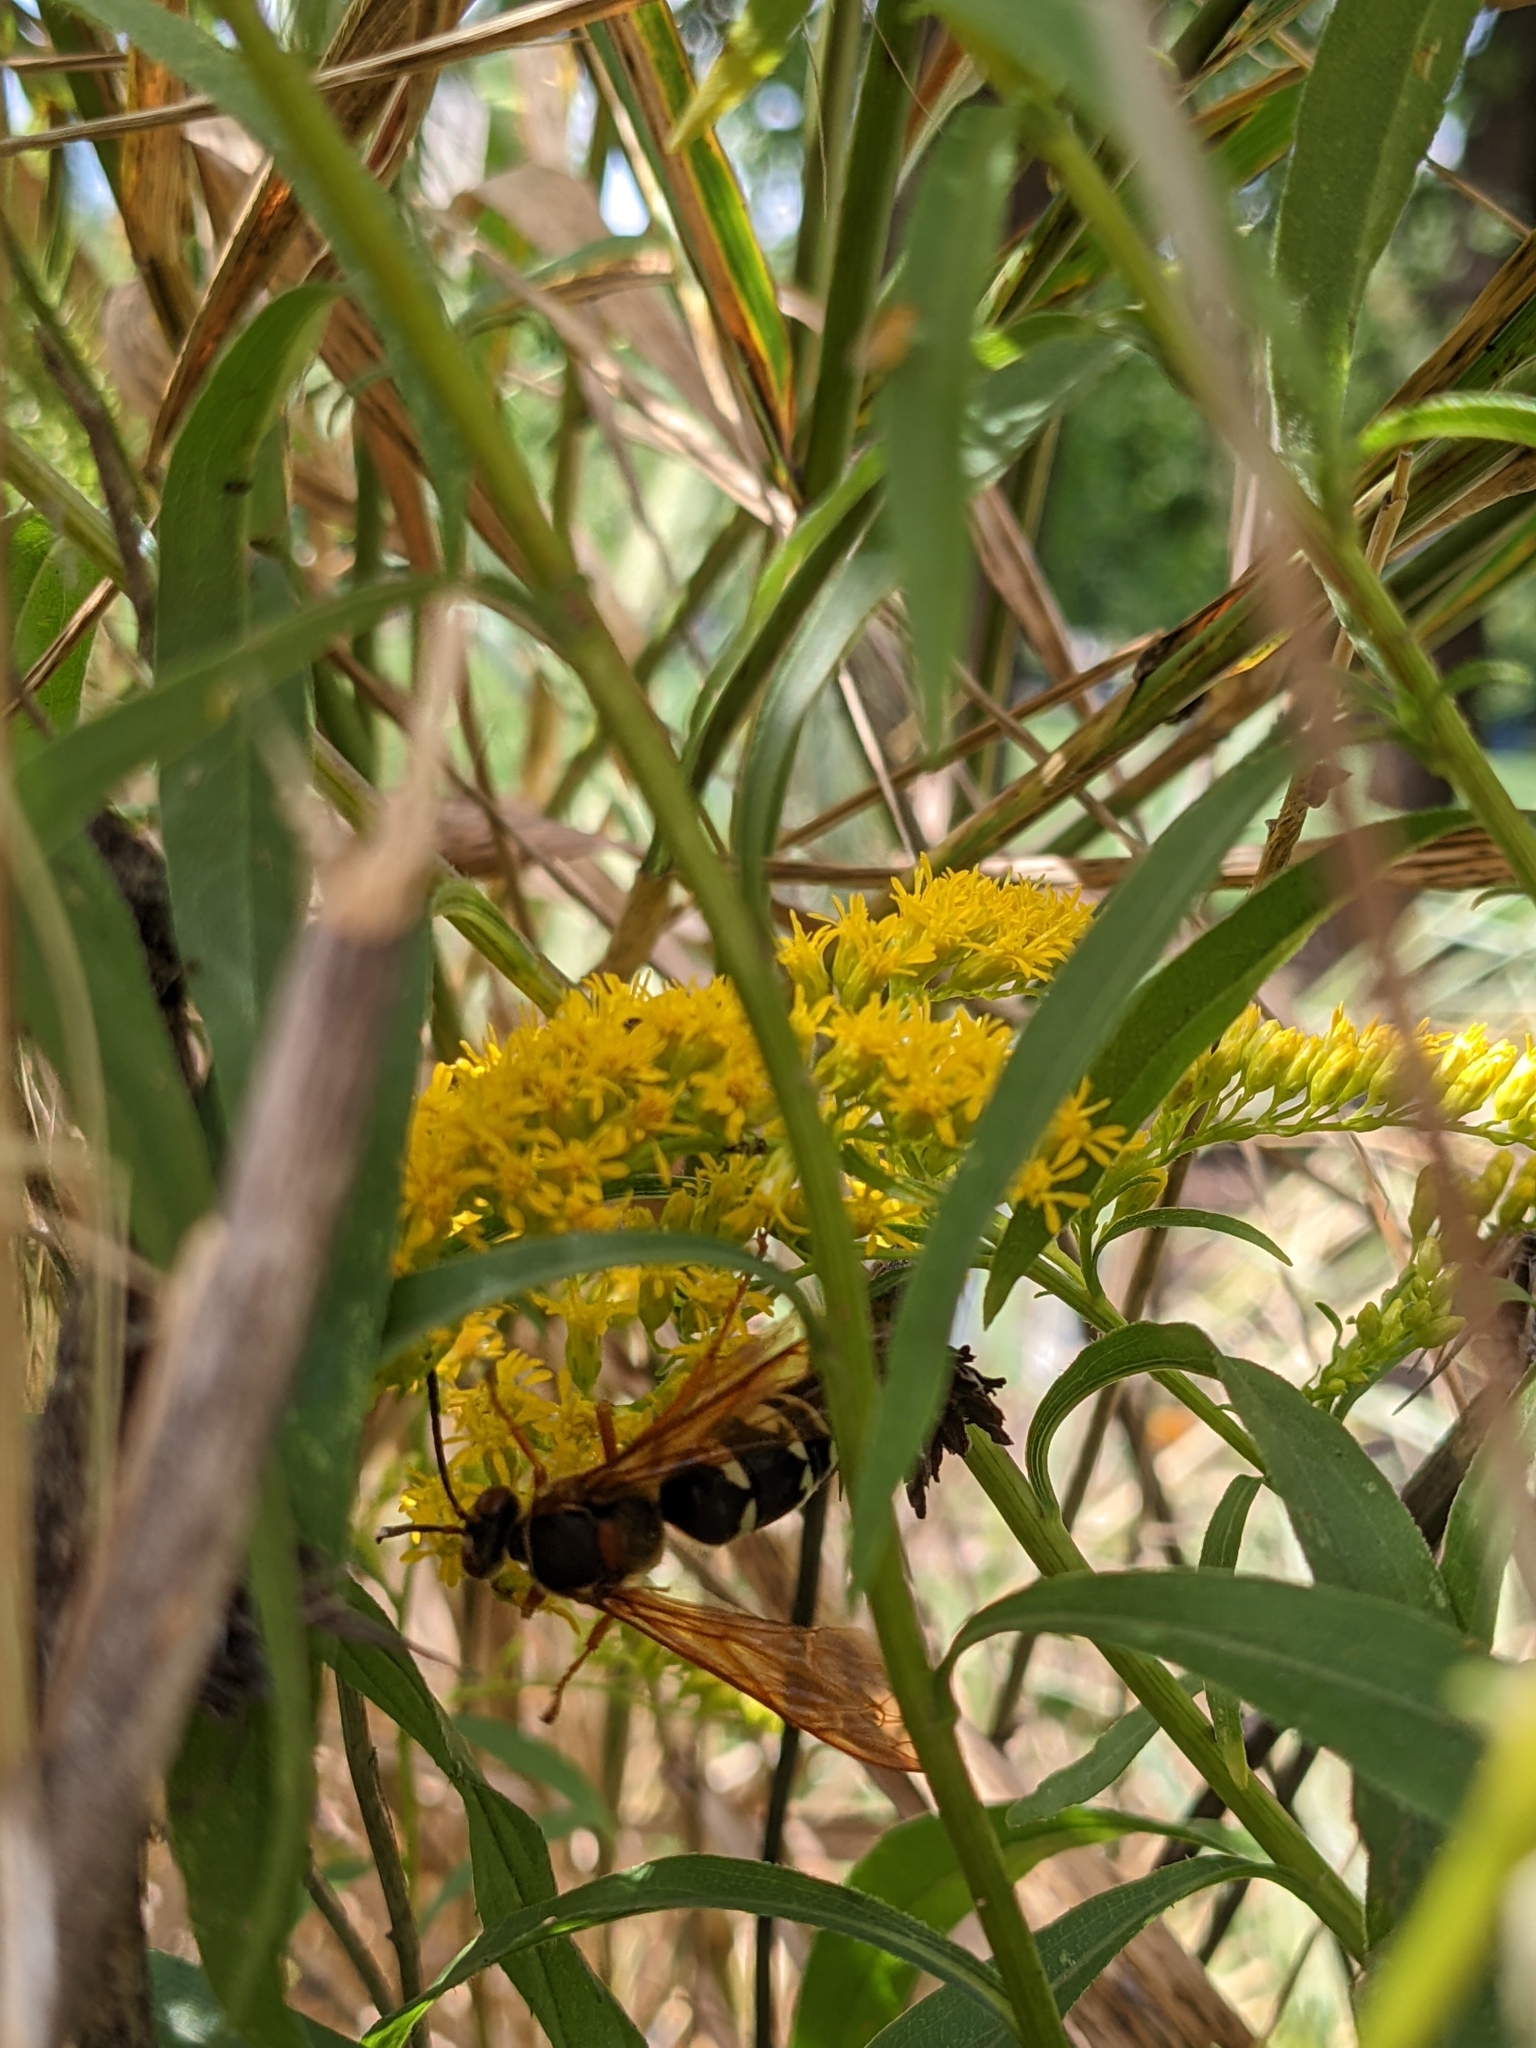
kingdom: Animalia
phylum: Arthropoda
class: Insecta
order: Hymenoptera
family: Crabronidae
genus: Sphecius
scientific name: Sphecius speciosus
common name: Cicada killer
